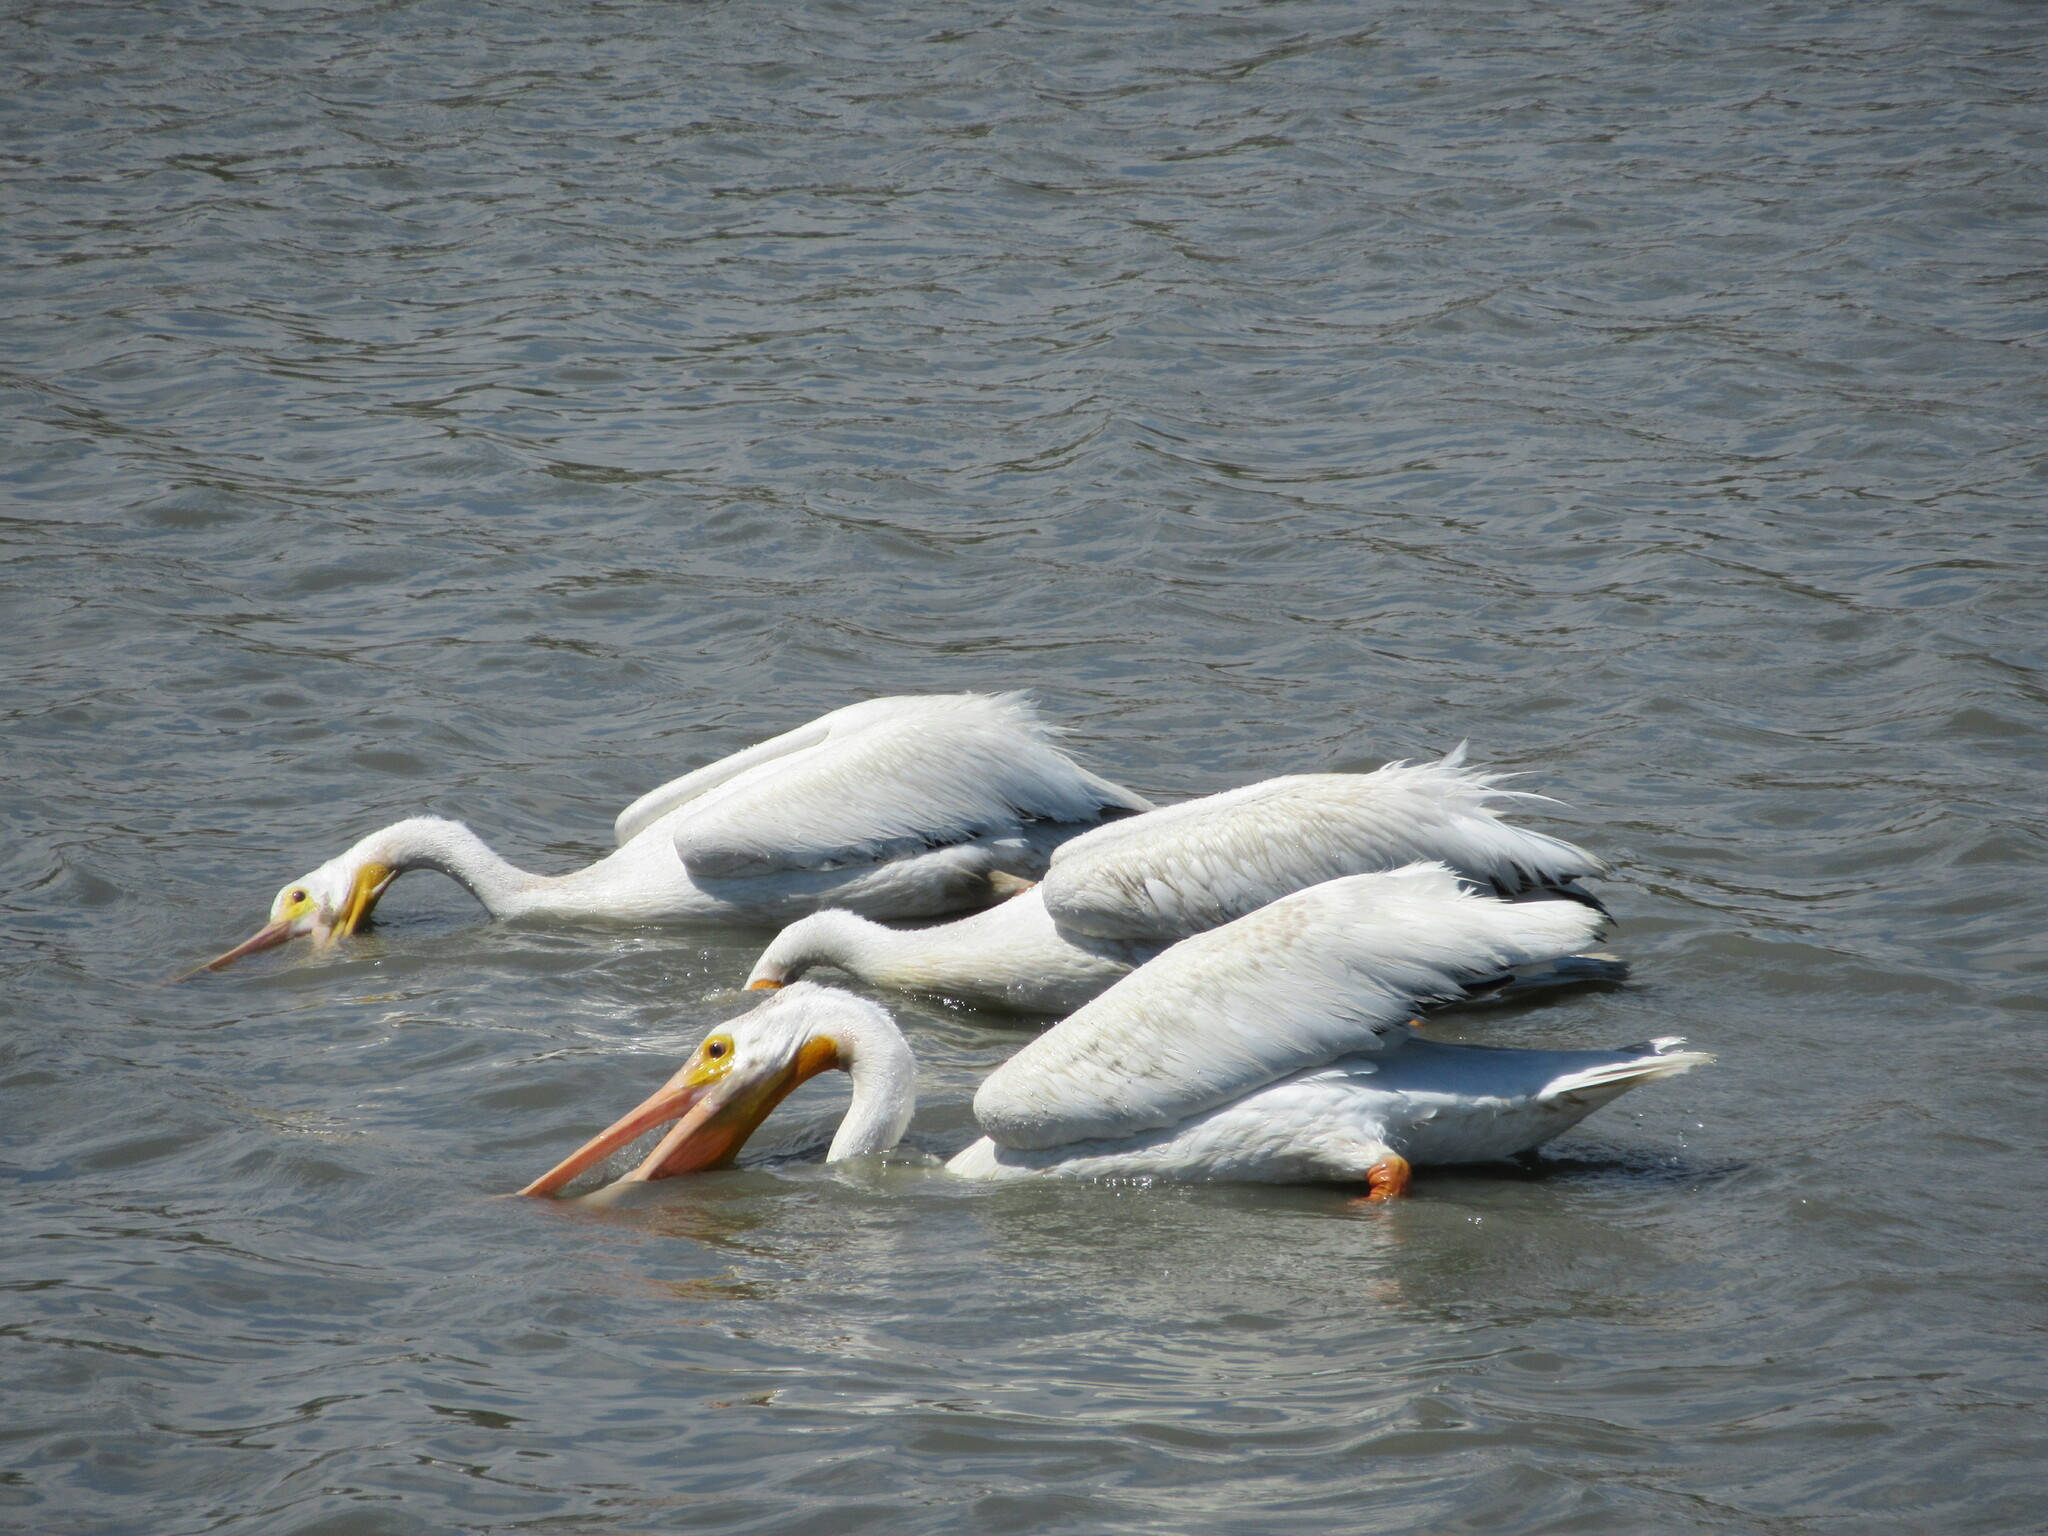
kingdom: Animalia
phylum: Chordata
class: Aves
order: Pelecaniformes
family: Pelecanidae
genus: Pelecanus
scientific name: Pelecanus erythrorhynchos
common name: American white pelican
